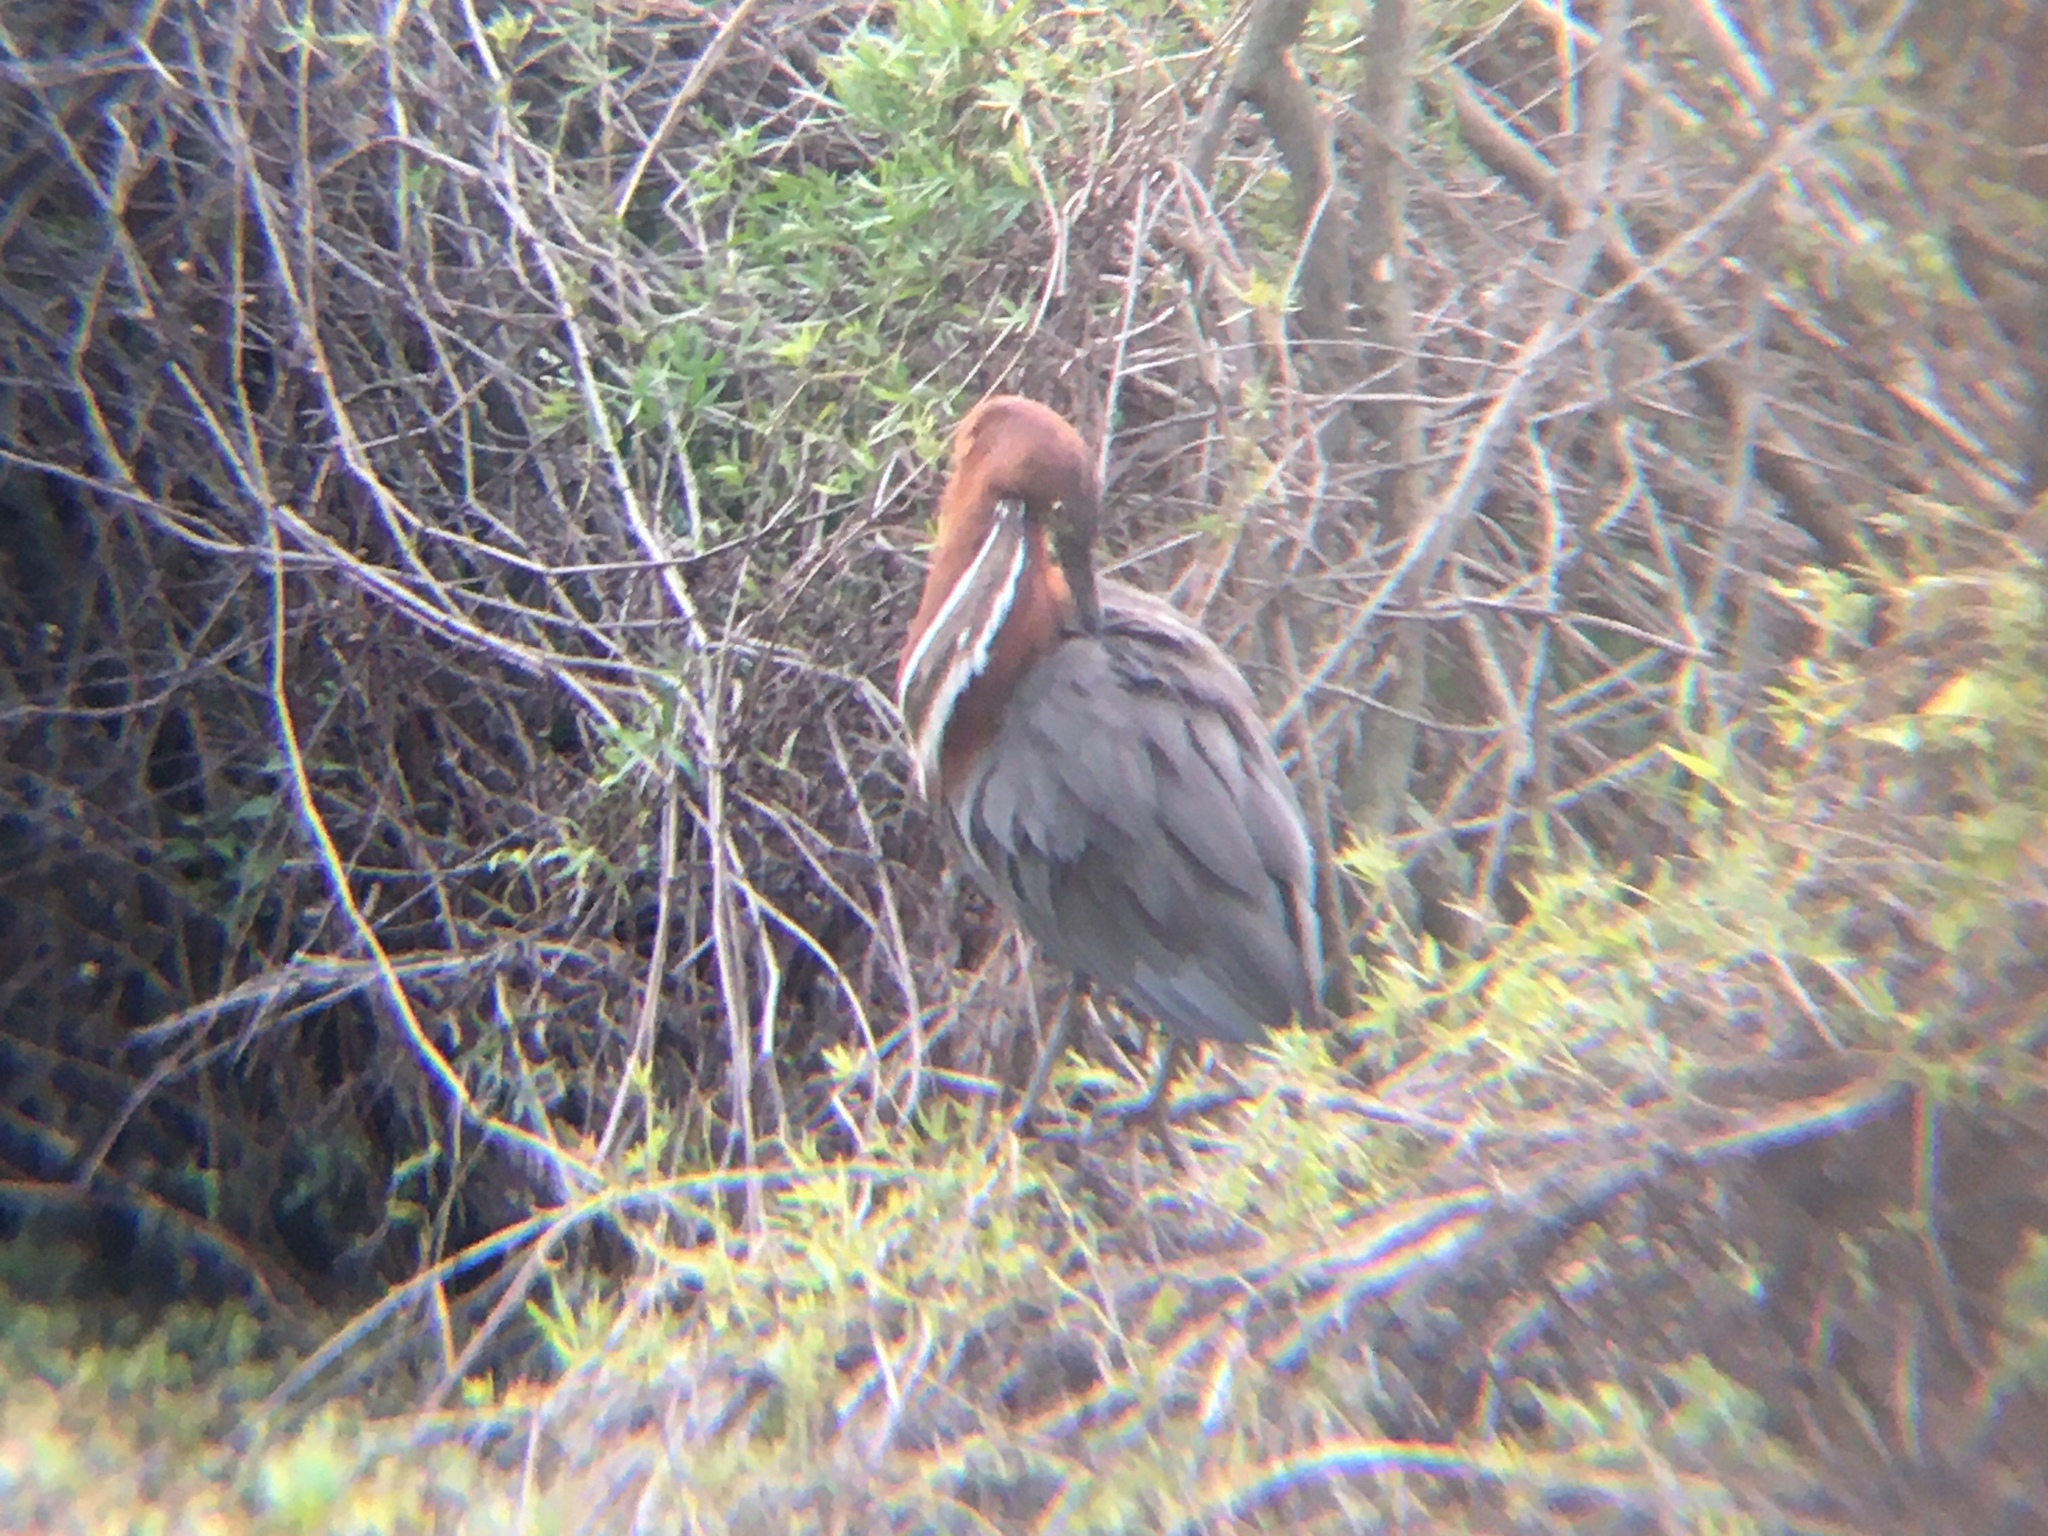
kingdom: Animalia
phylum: Chordata
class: Aves
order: Pelecaniformes
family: Ardeidae
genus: Tigrisoma
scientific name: Tigrisoma lineatum
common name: Rufescent tiger-heron
